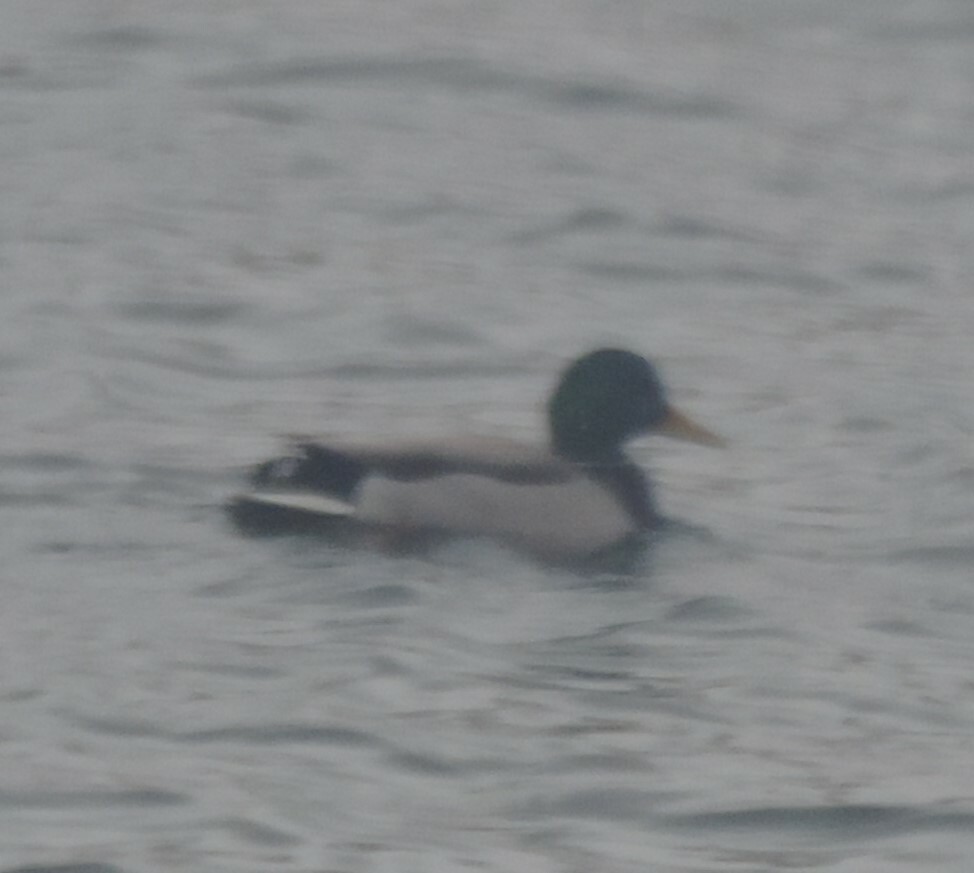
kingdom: Animalia
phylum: Chordata
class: Aves
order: Anseriformes
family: Anatidae
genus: Anas
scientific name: Anas platyrhynchos
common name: Mallard
